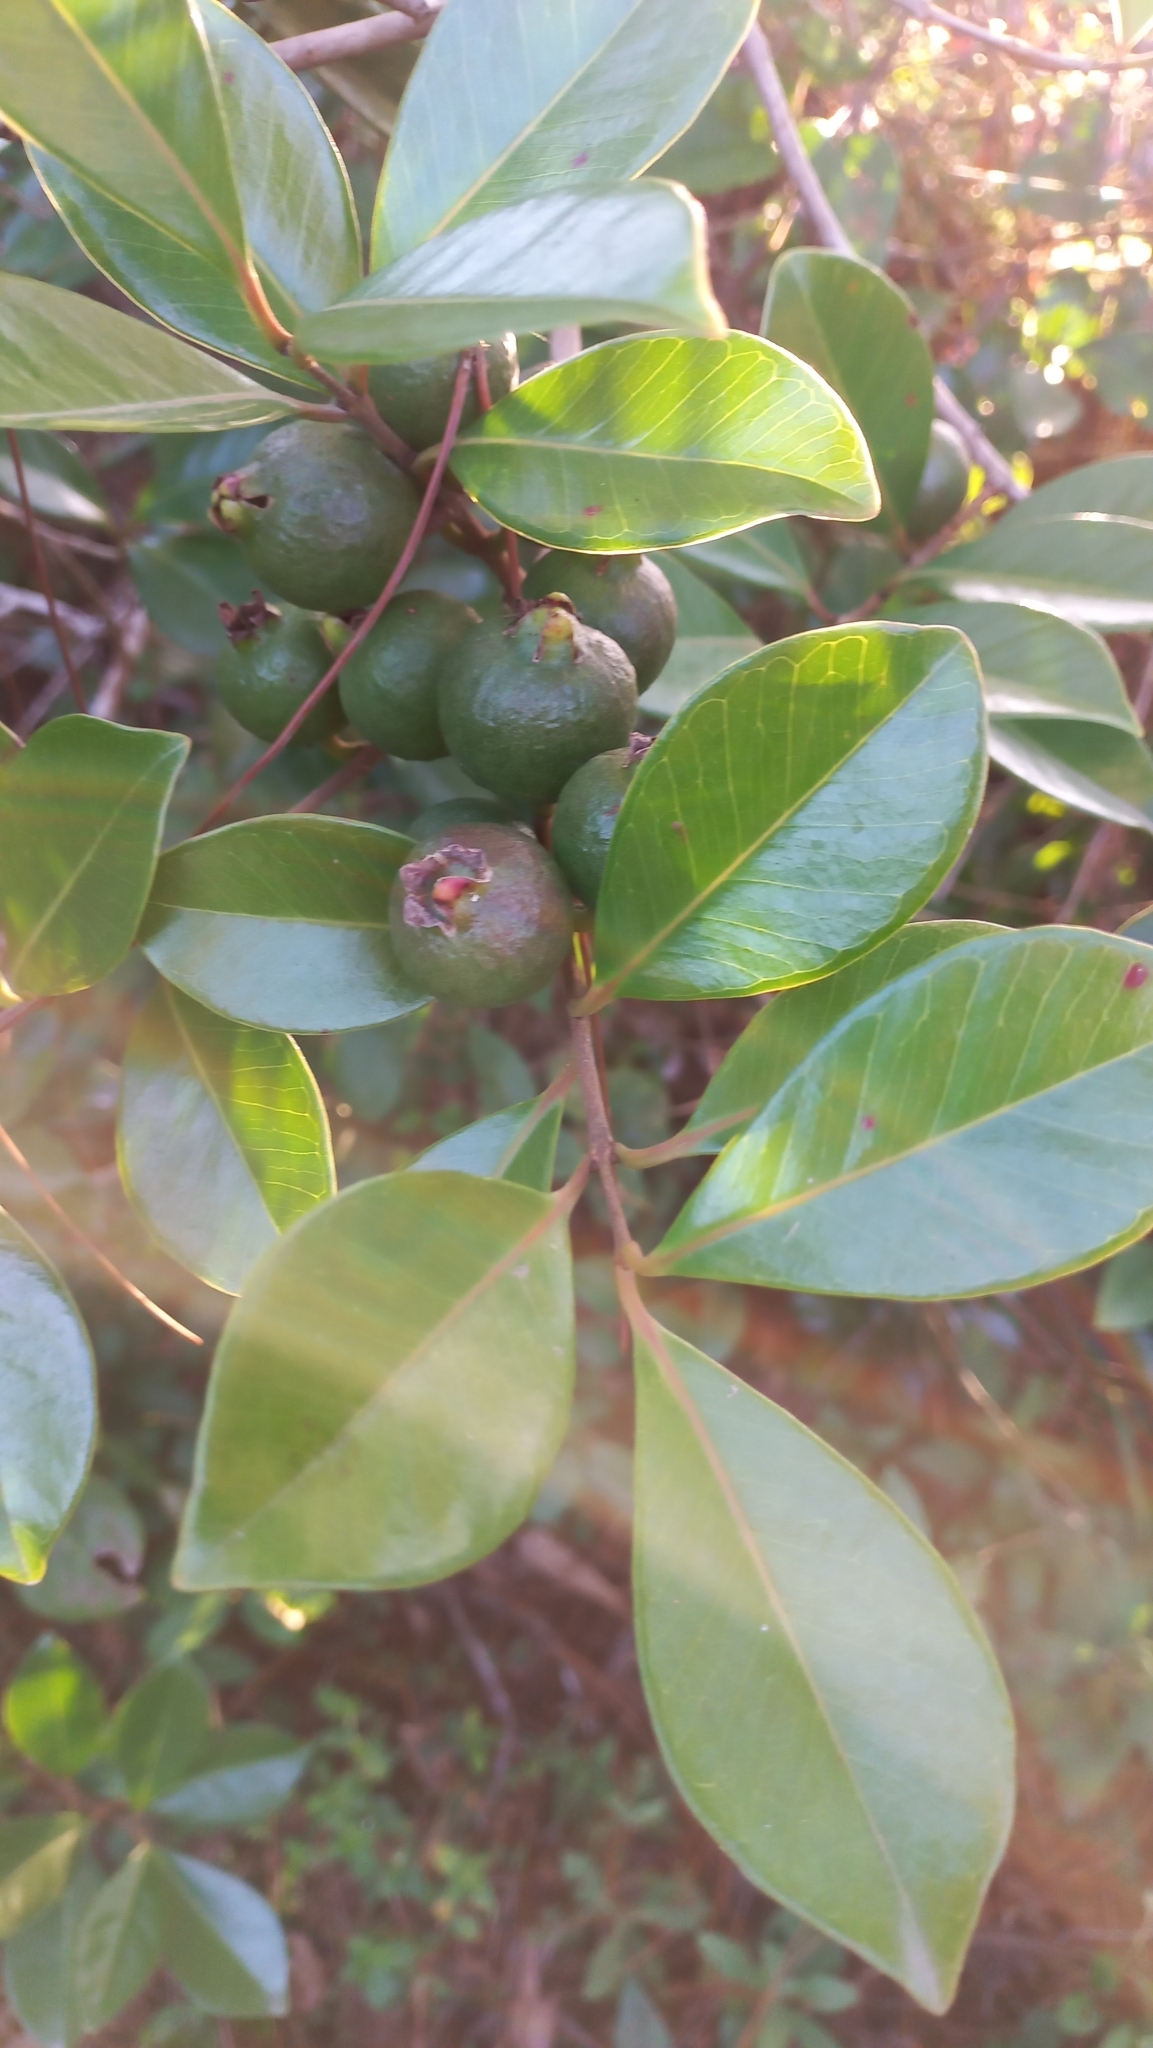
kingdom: Plantae
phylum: Tracheophyta
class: Magnoliopsida
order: Myrtales
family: Myrtaceae
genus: Psidium
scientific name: Psidium cattleianum
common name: Strawberry guava
